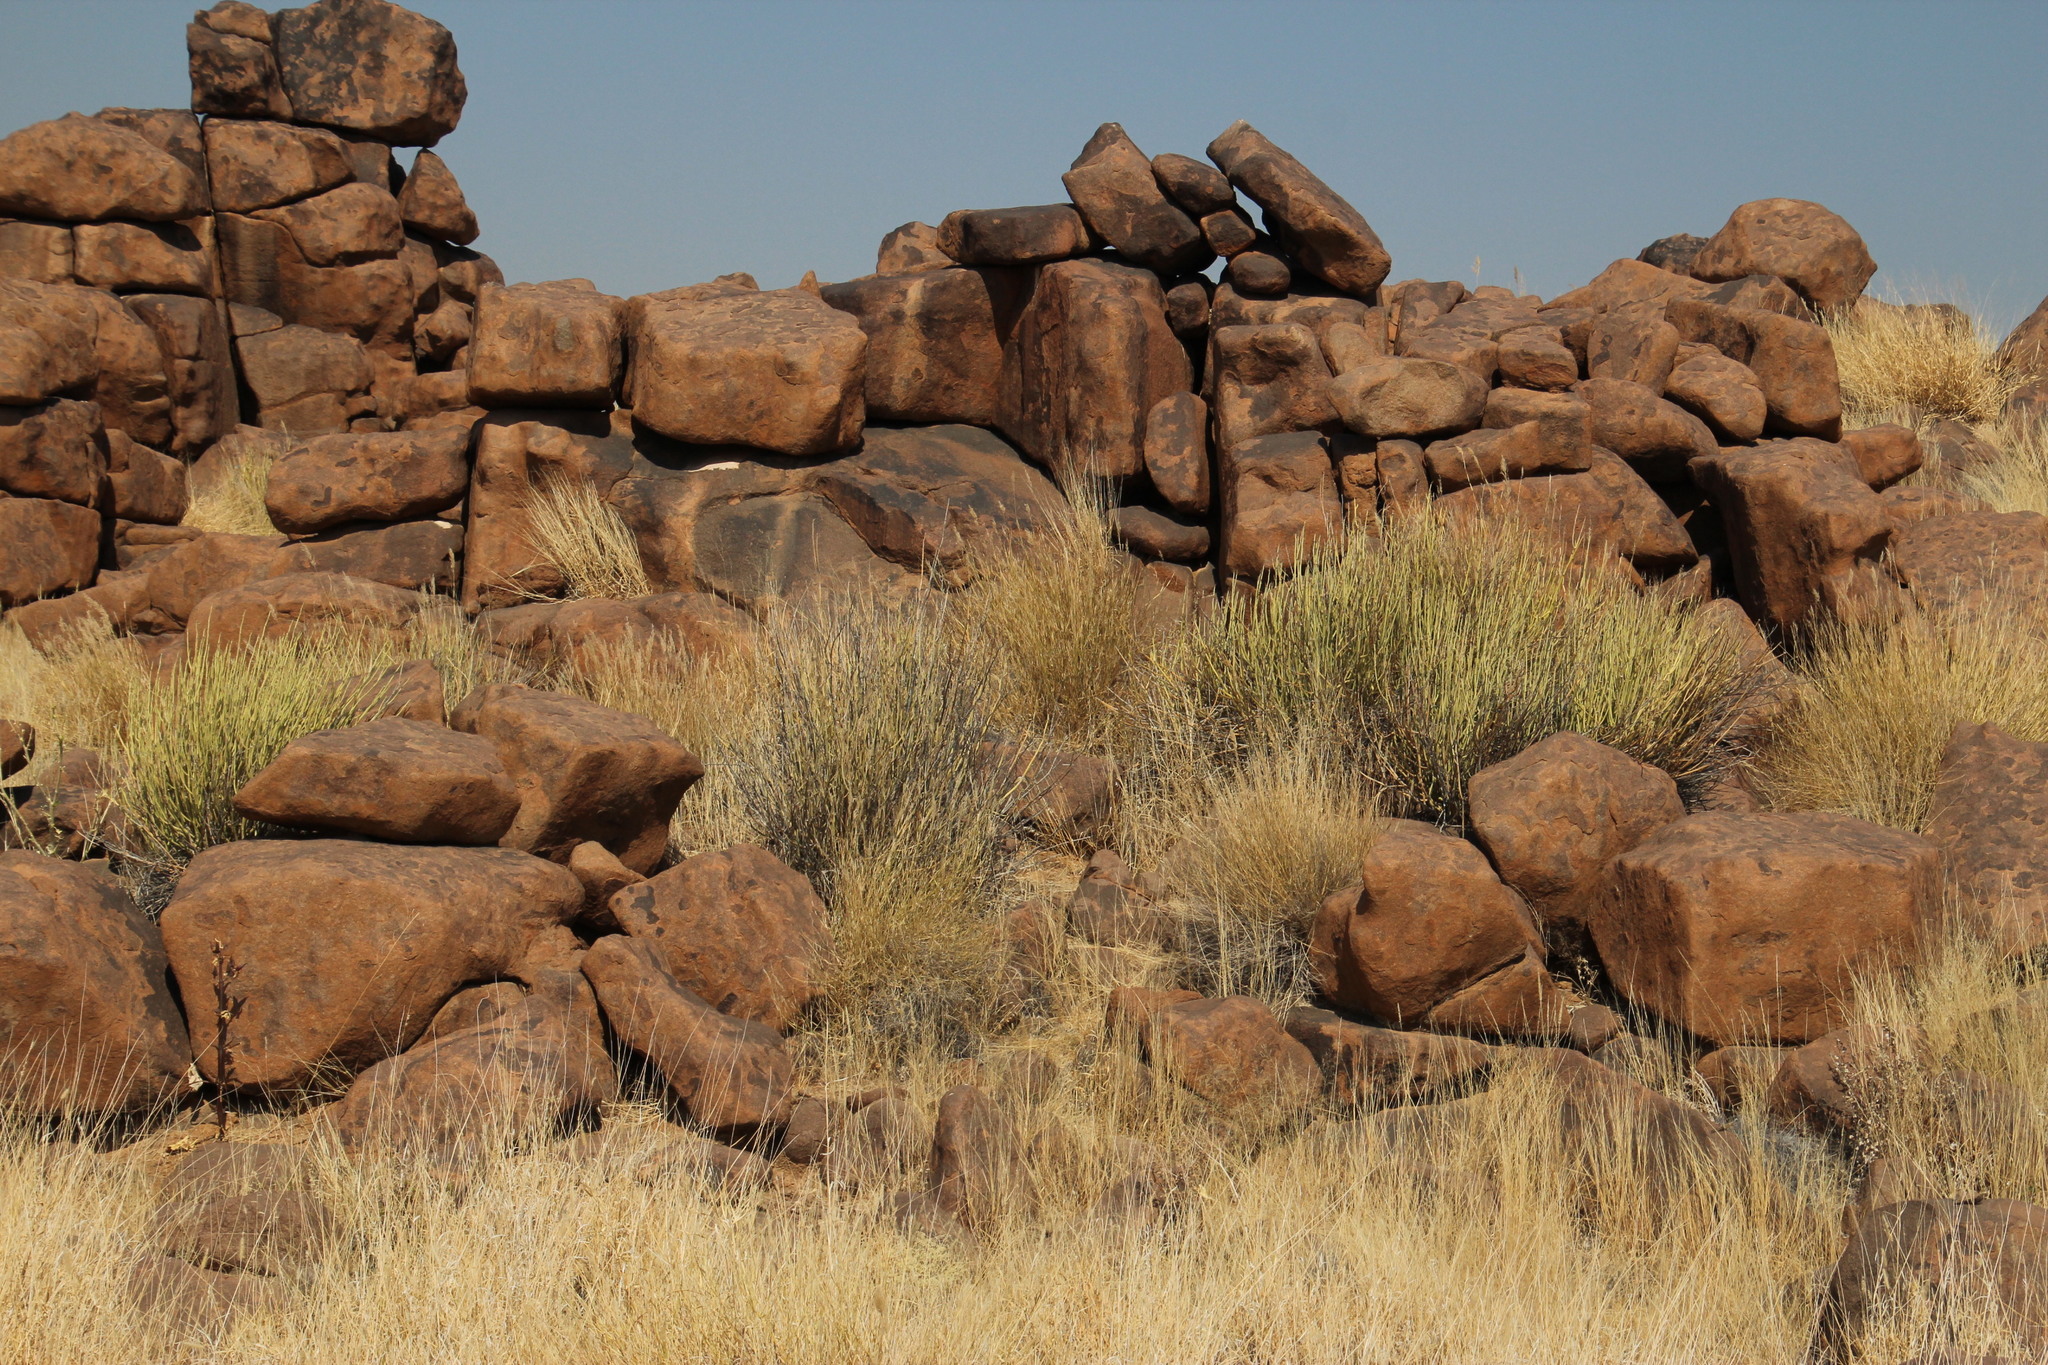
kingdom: Plantae
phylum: Tracheophyta
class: Magnoliopsida
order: Asterales
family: Asteraceae
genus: Curio
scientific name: Curio avasimontanus
